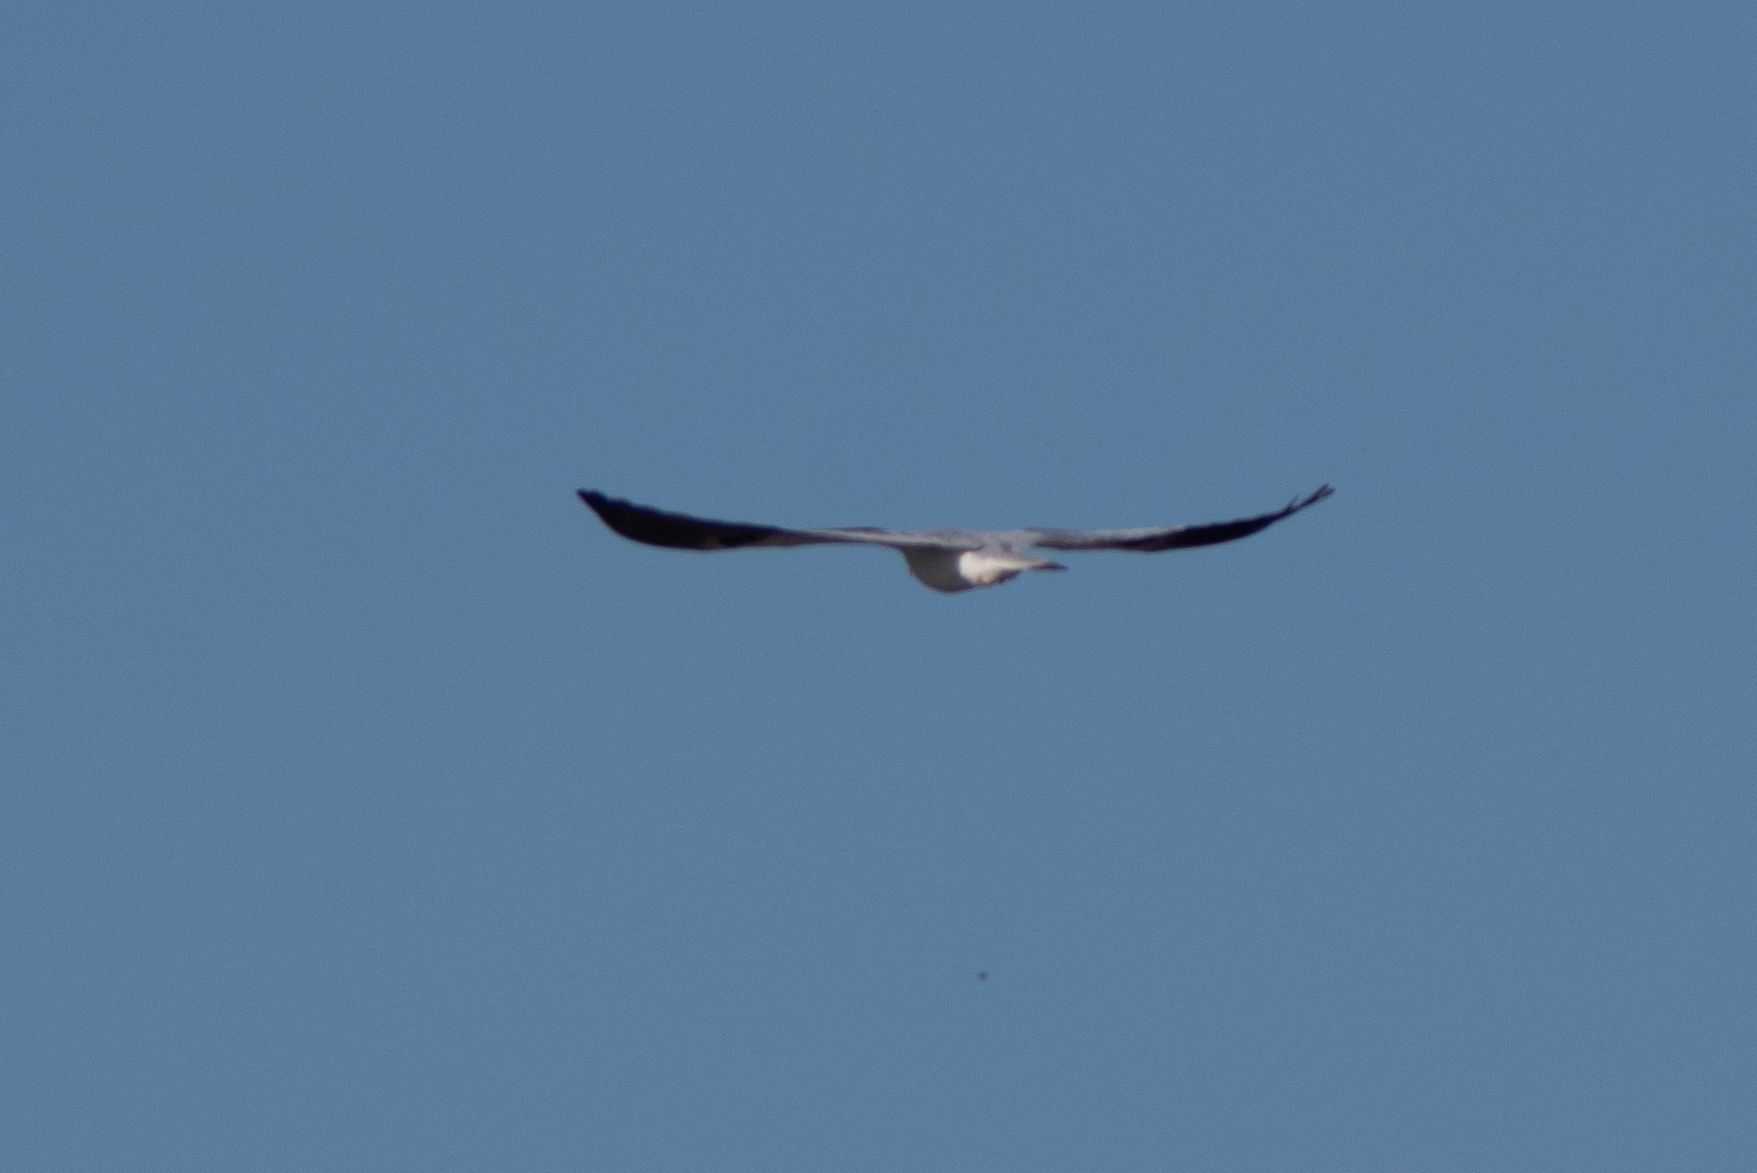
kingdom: Animalia
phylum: Chordata
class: Aves
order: Accipitriformes
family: Accipitridae
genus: Elanus
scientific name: Elanus leucurus
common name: White-tailed kite
